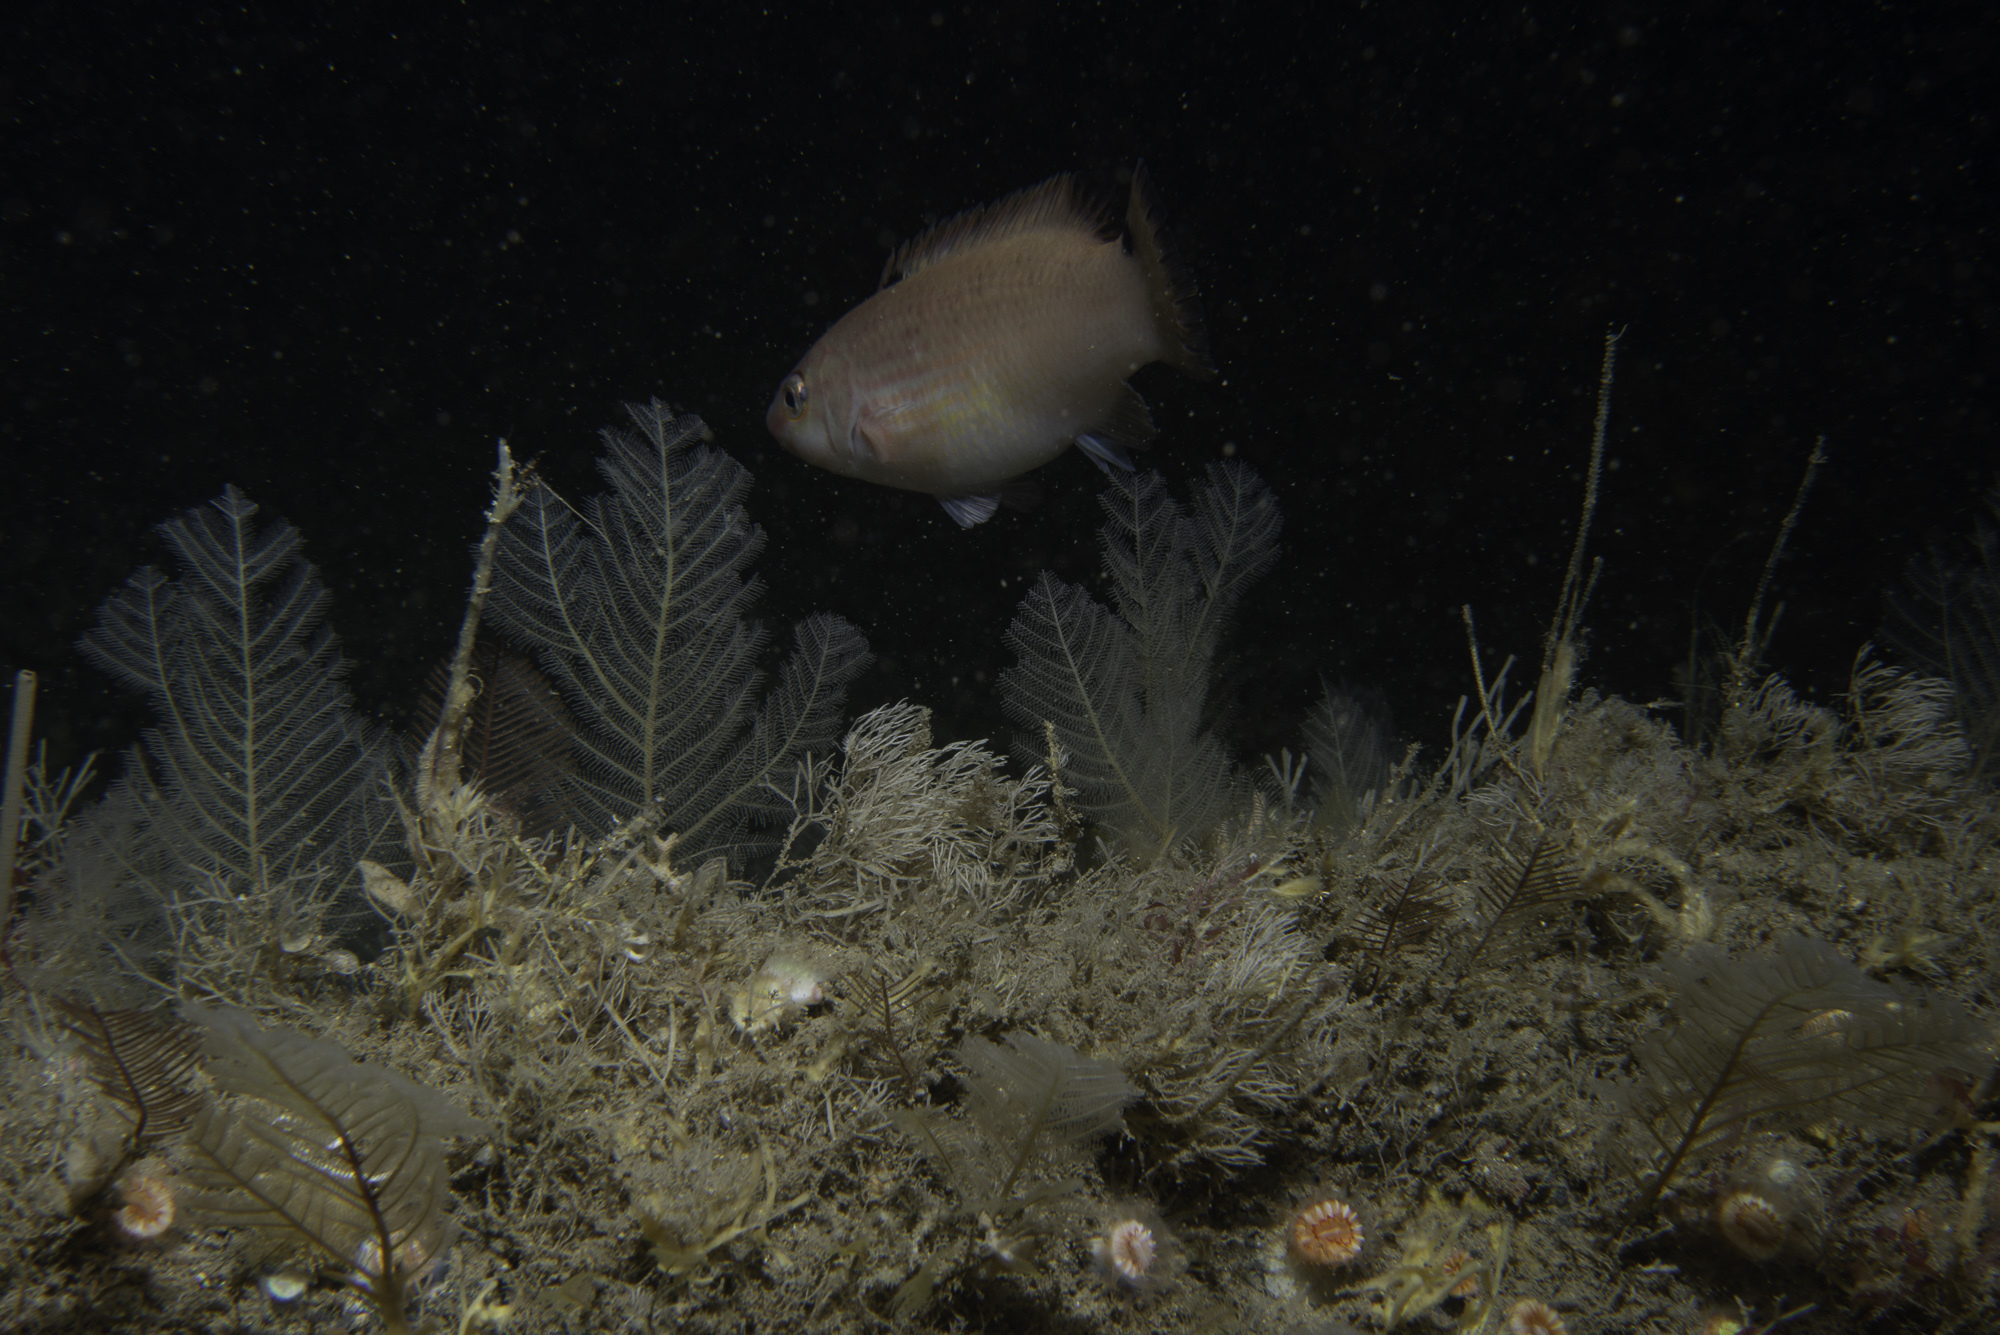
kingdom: Animalia
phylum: Cnidaria
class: Hydrozoa
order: Leptothecata
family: Halopterididae
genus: Polyplumaria
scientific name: Polyplumaria flabellata
